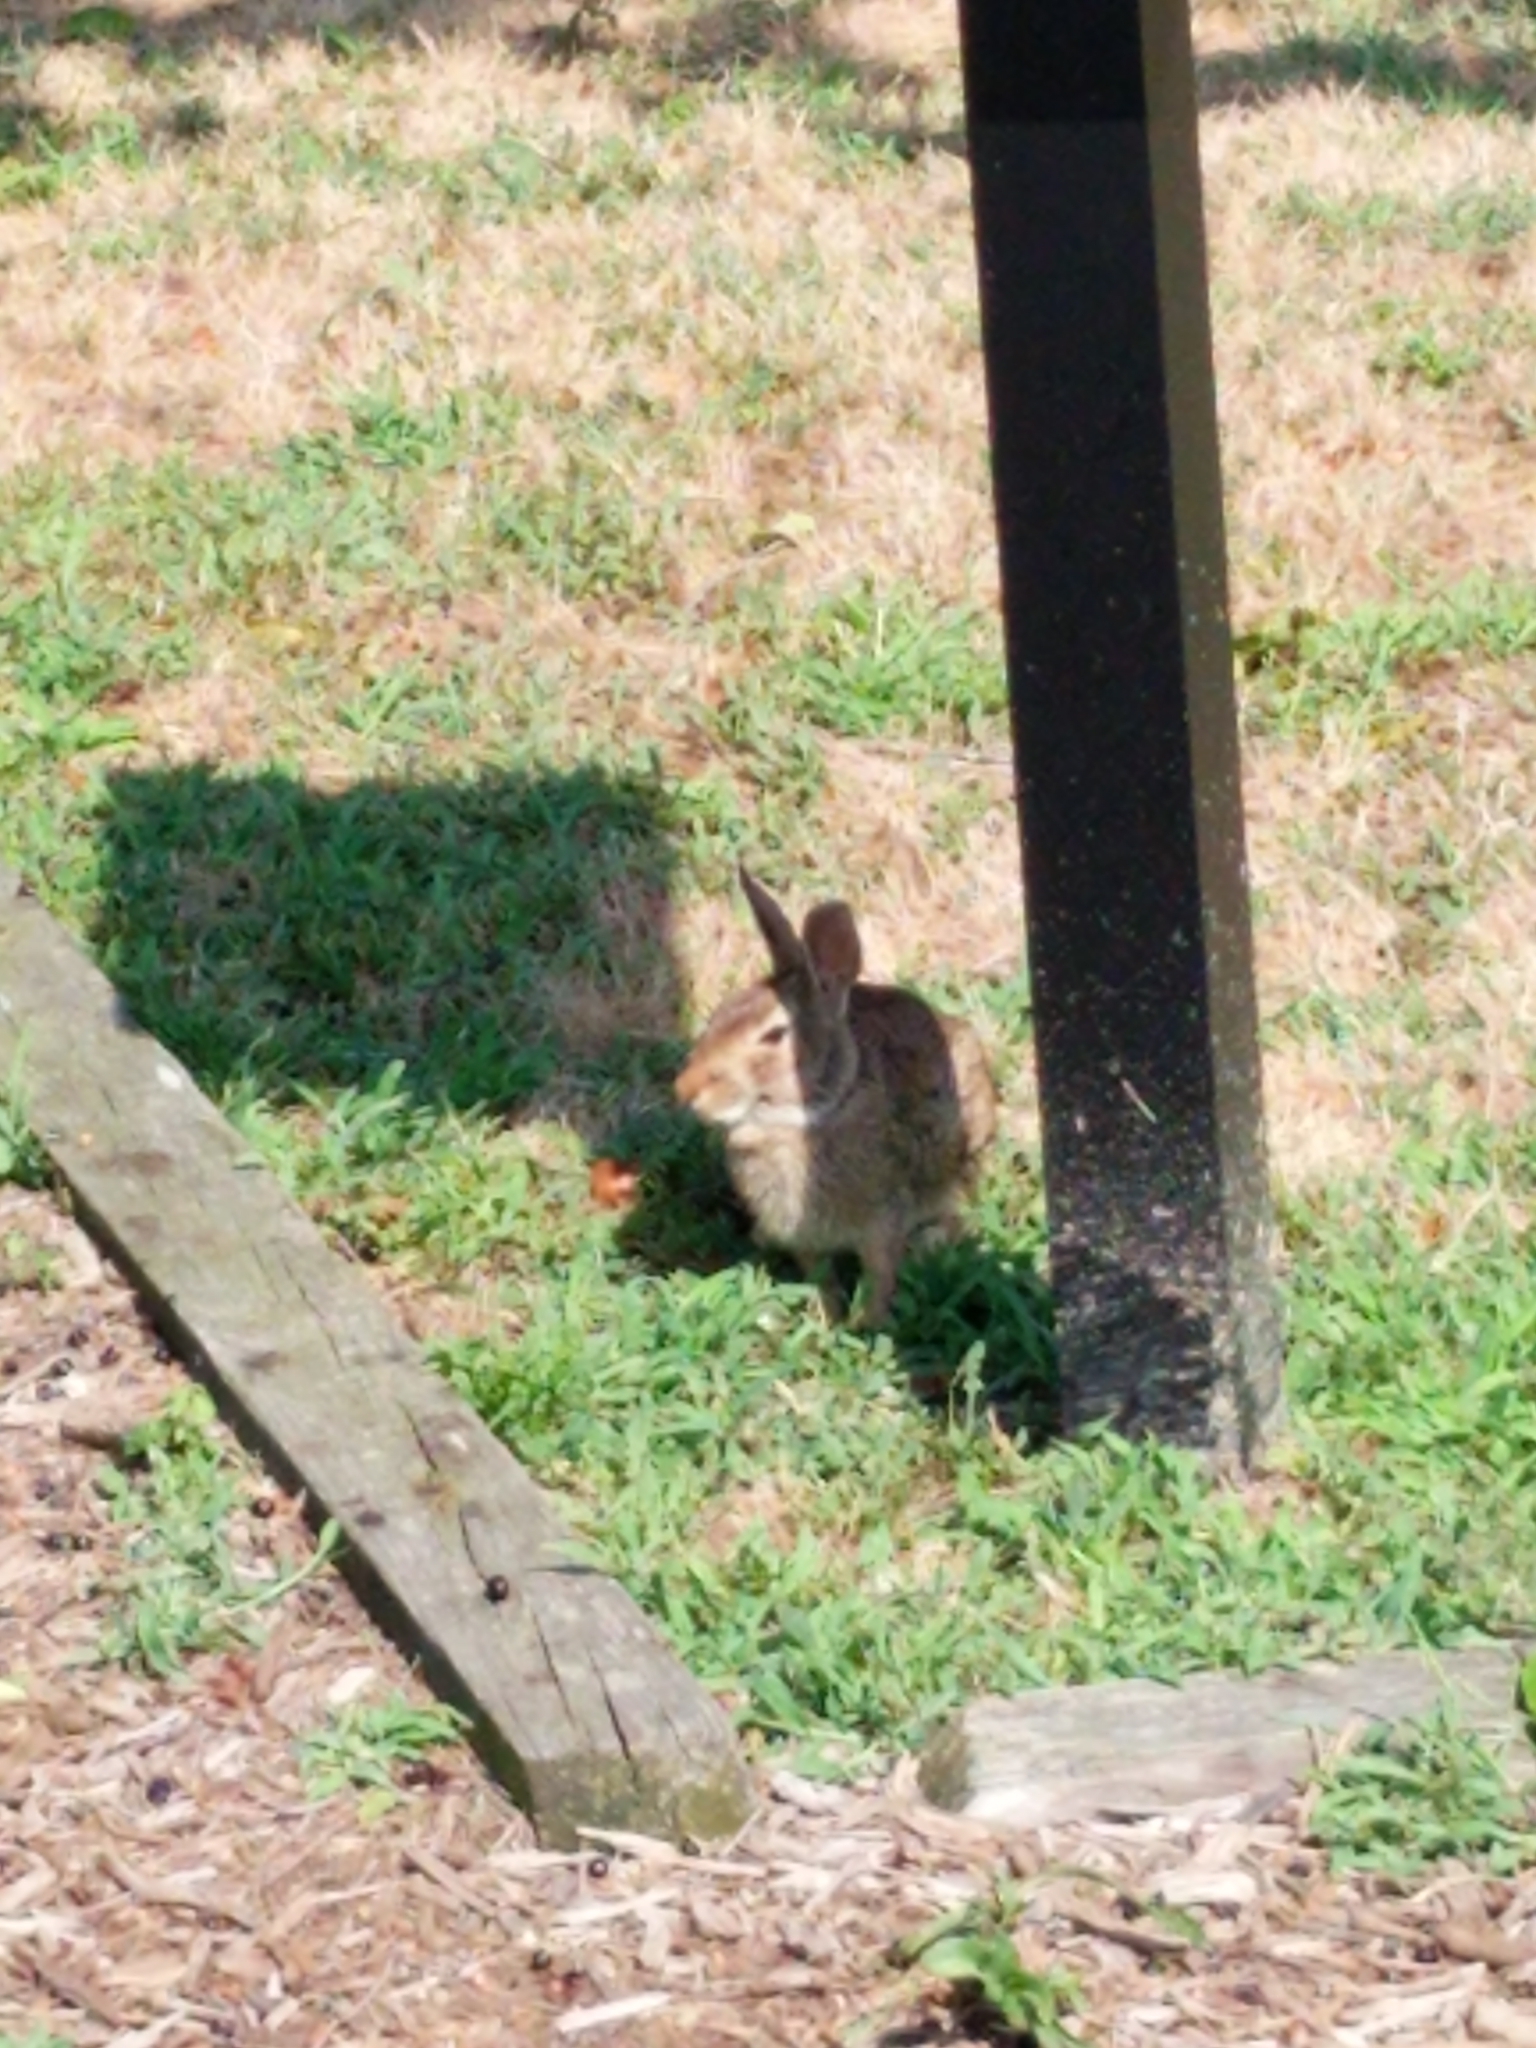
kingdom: Animalia
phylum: Chordata
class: Mammalia
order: Lagomorpha
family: Leporidae
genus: Sylvilagus
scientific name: Sylvilagus floridanus
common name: Eastern cottontail
